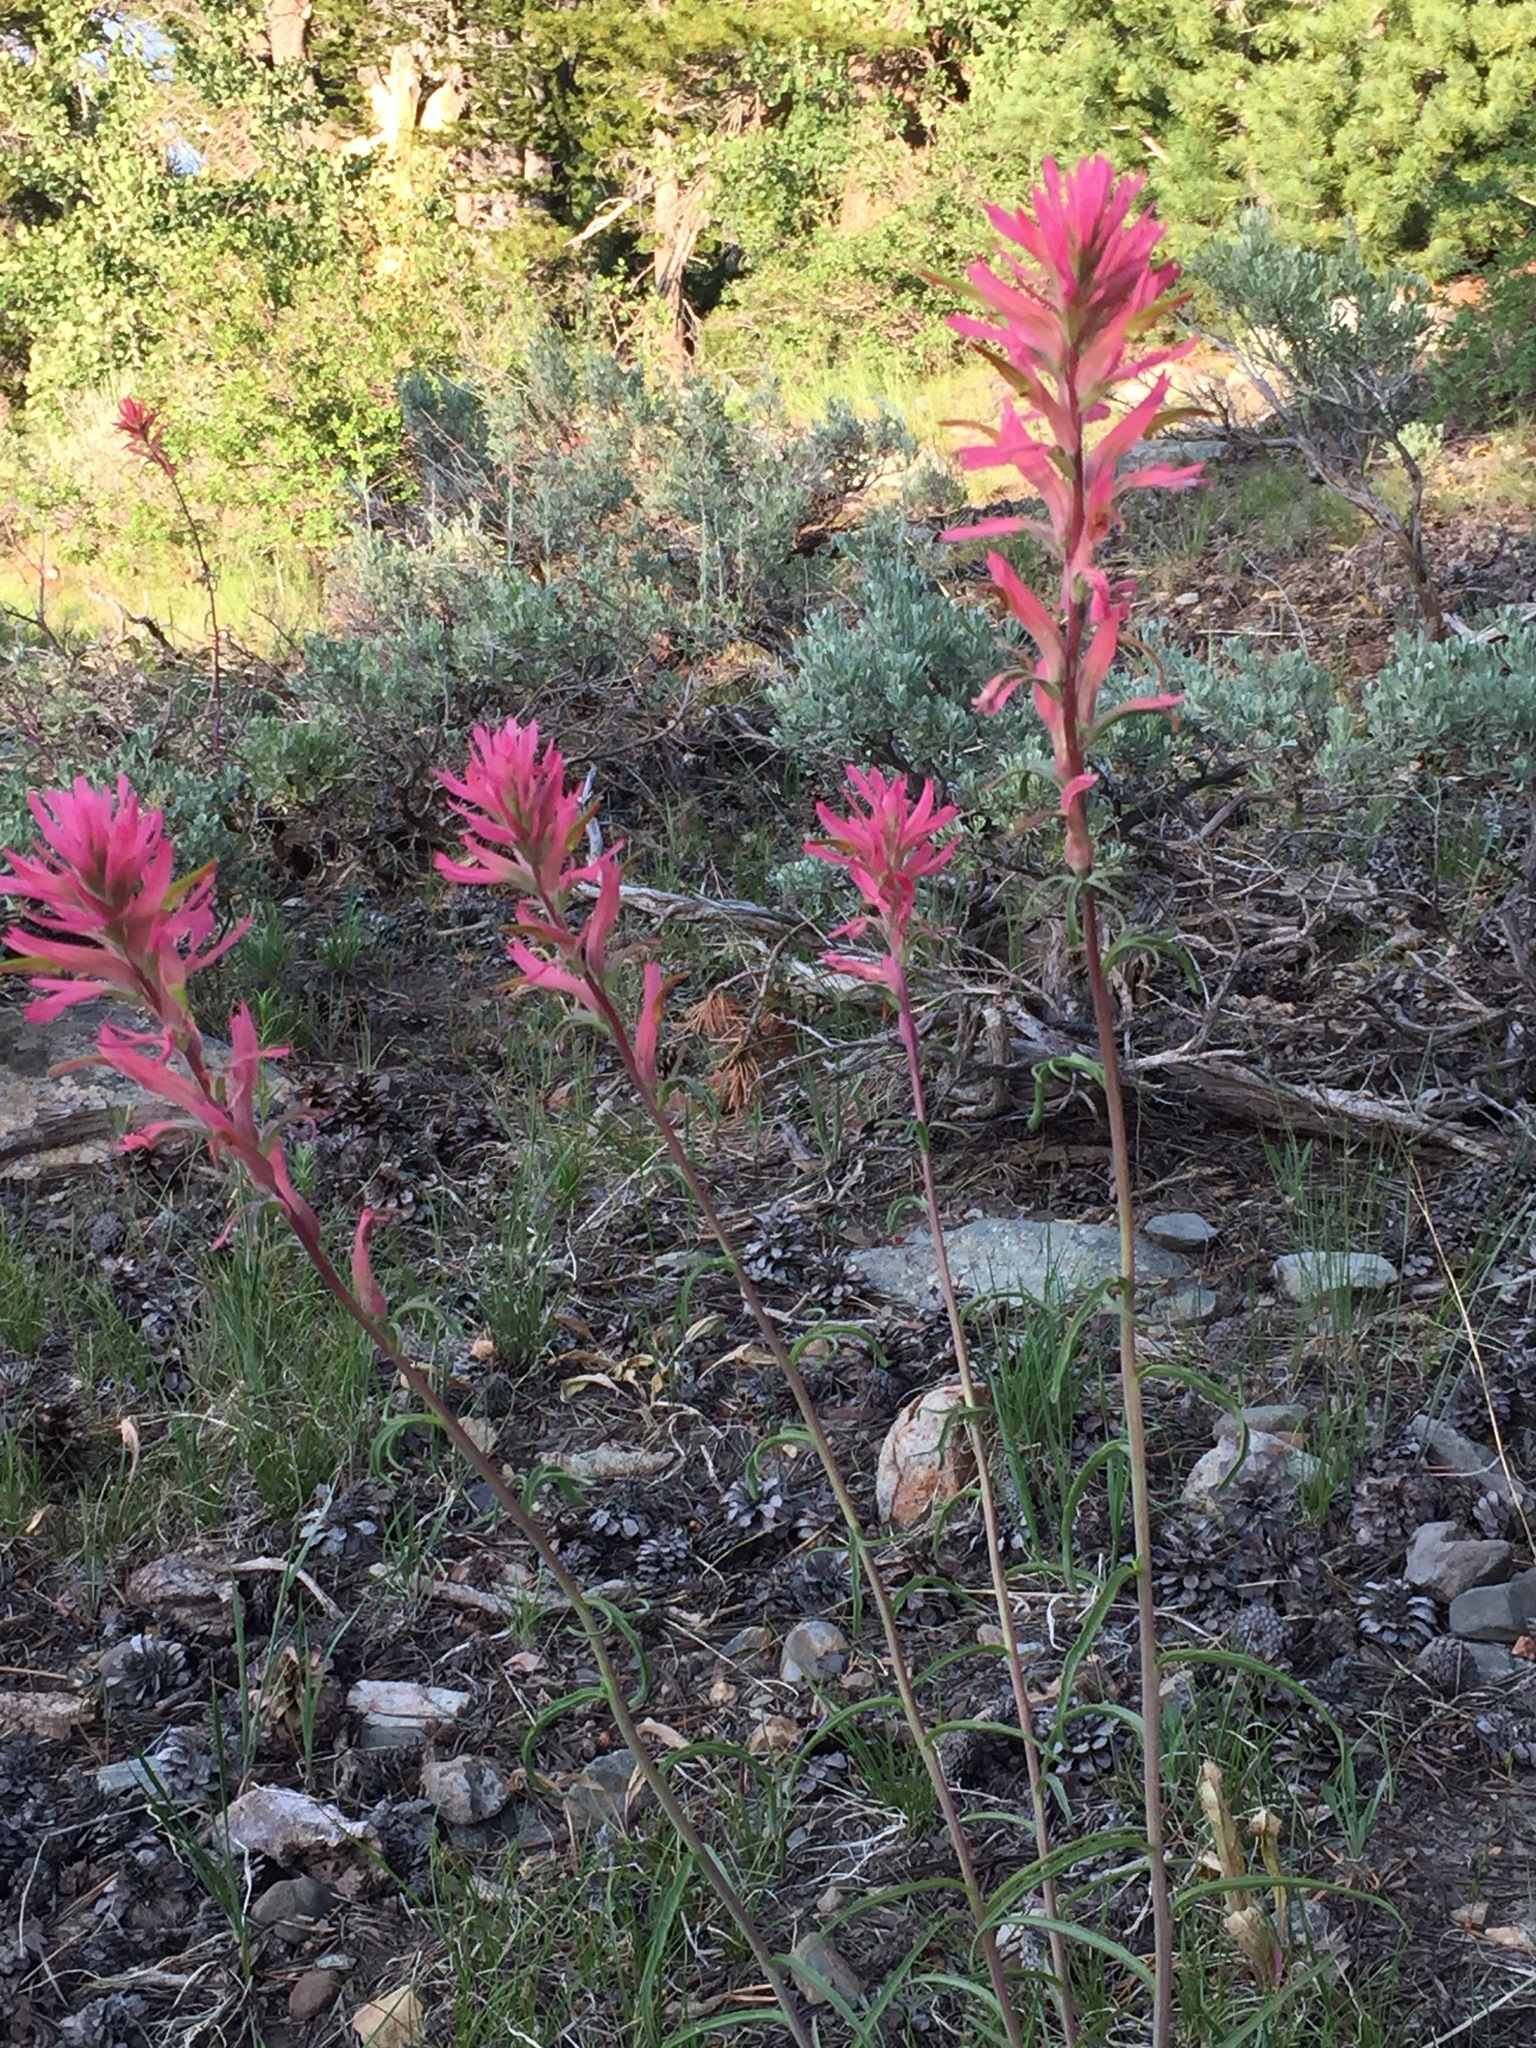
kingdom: Plantae
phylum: Tracheophyta
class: Magnoliopsida
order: Lamiales
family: Orobanchaceae
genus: Castilleja
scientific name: Castilleja linariifolia
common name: Wyoming paintbrush
